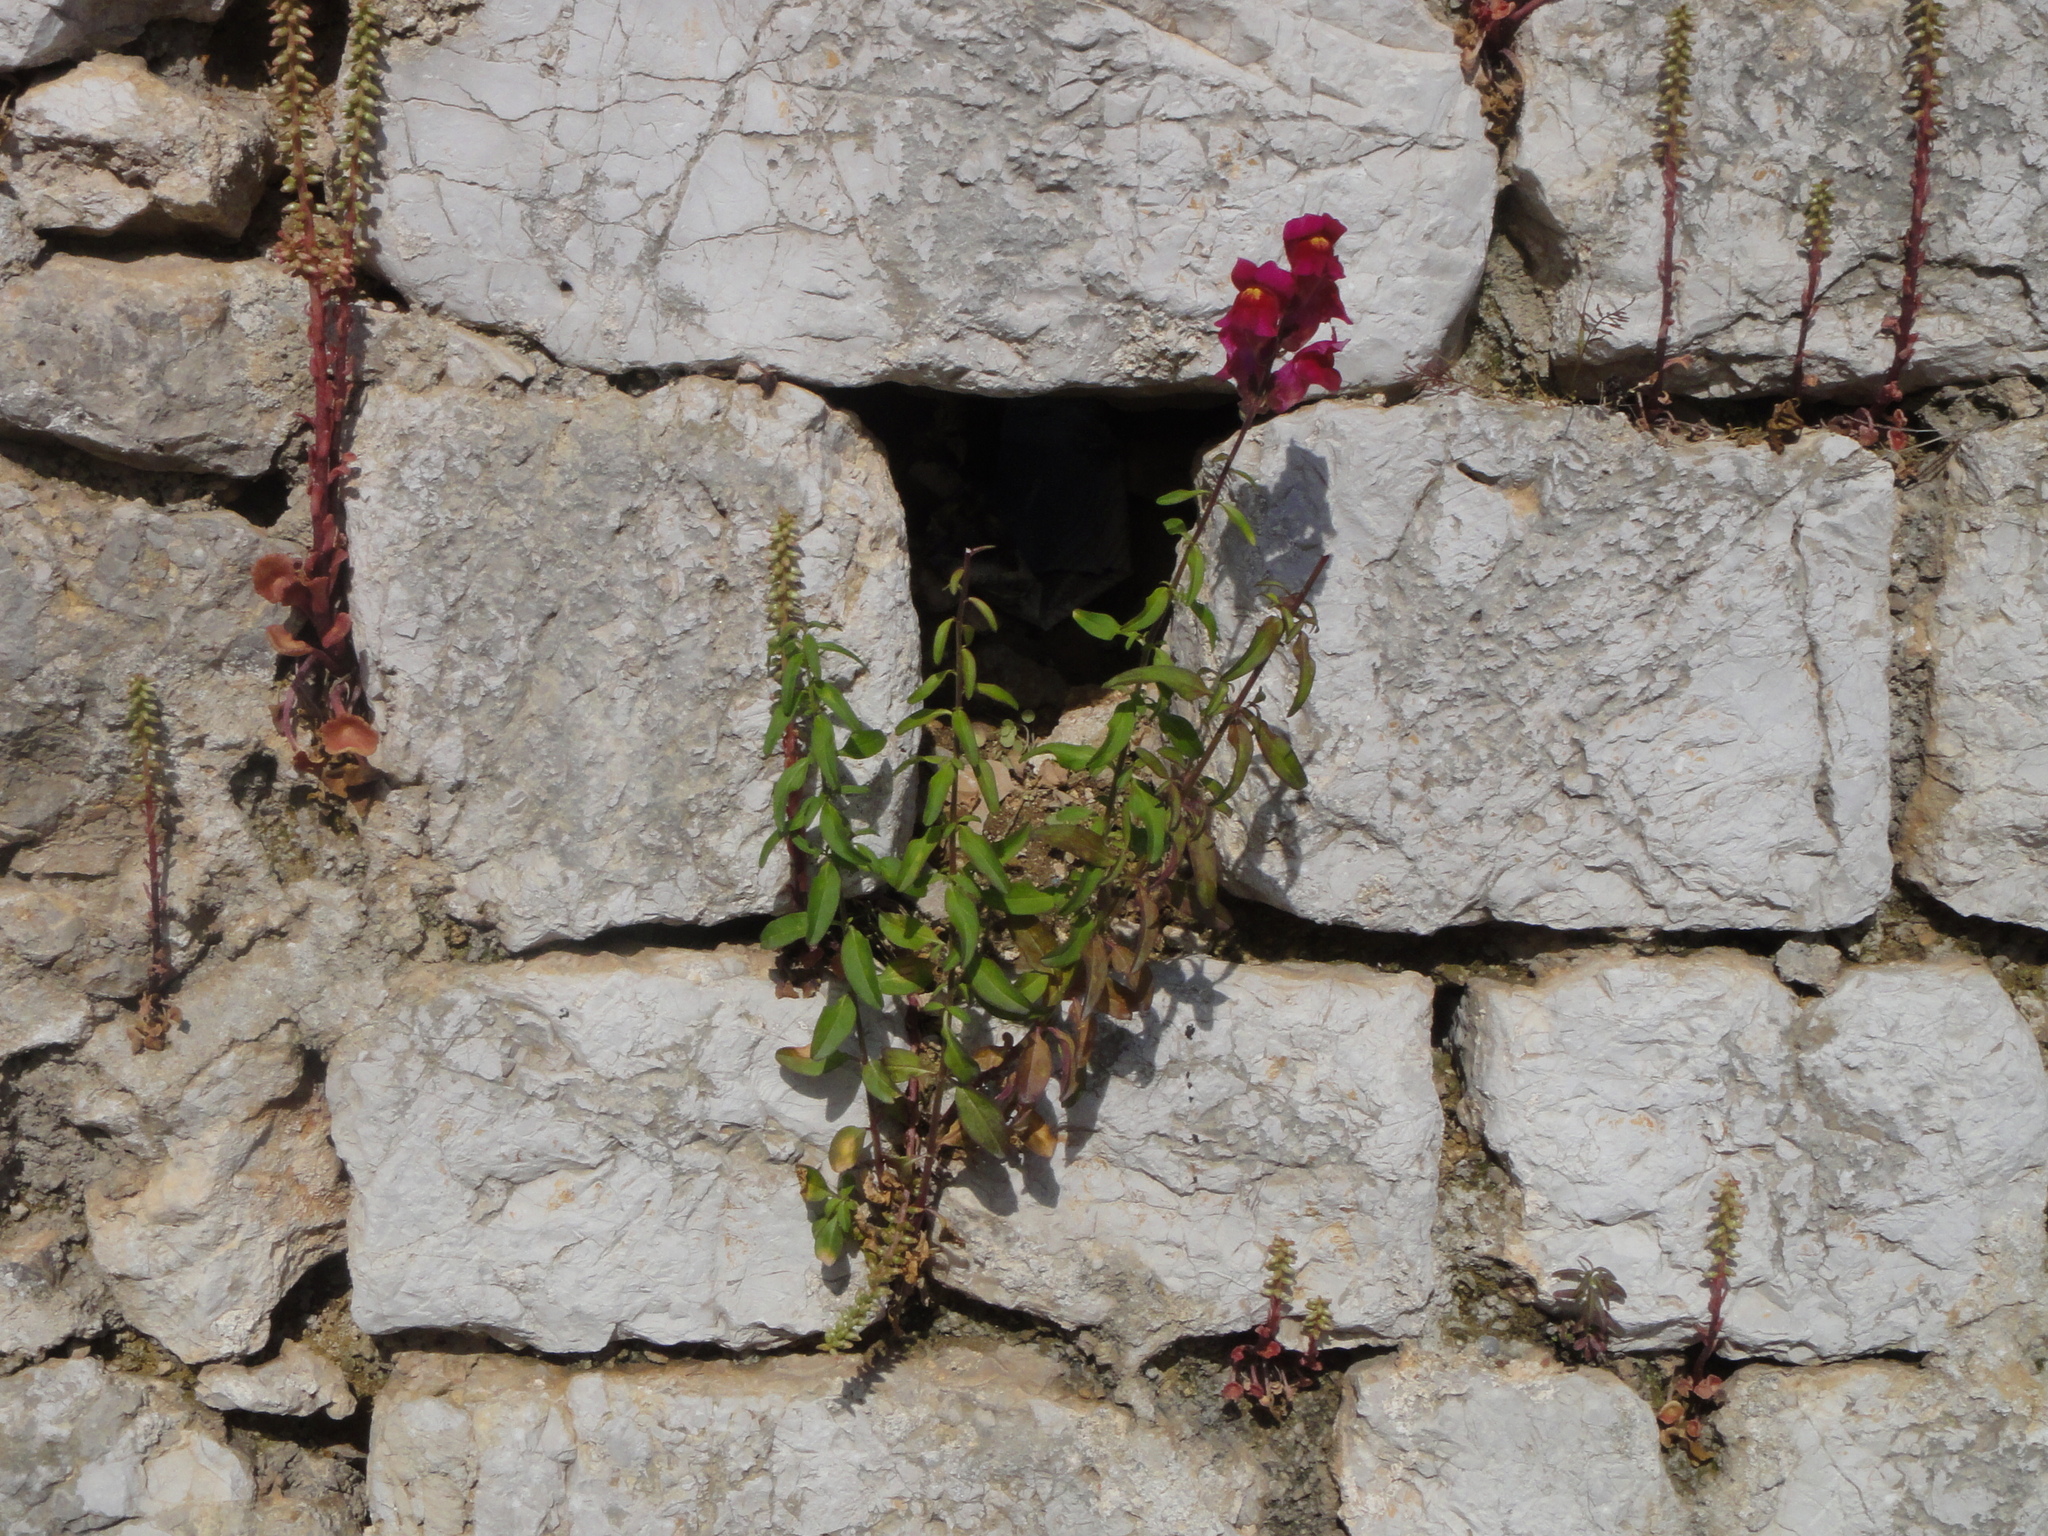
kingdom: Plantae
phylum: Tracheophyta
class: Magnoliopsida
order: Lamiales
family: Plantaginaceae
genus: Antirrhinum
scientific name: Antirrhinum majus
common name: Snapdragon
